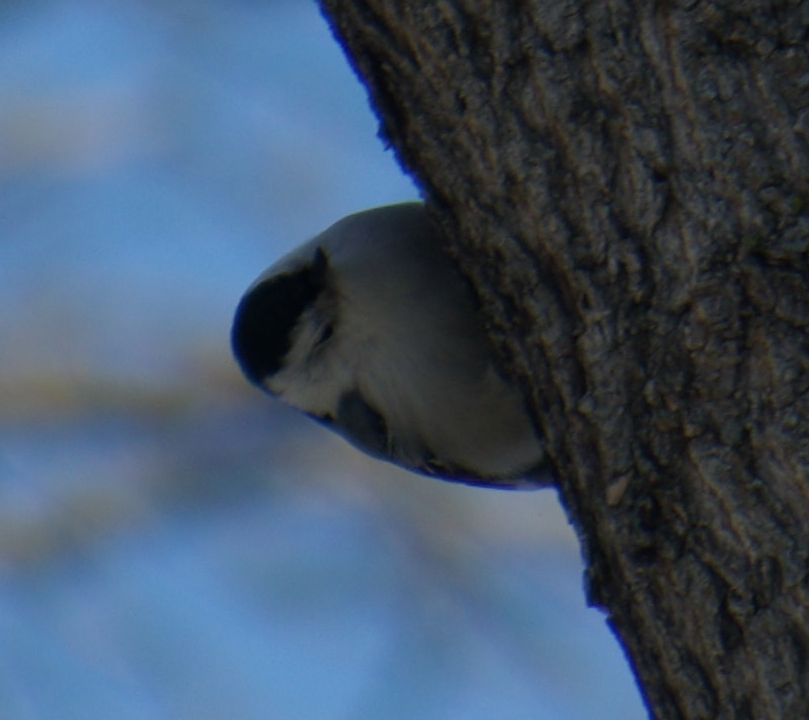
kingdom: Animalia
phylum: Chordata
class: Aves
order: Passeriformes
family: Sittidae
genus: Sitta
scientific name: Sitta carolinensis
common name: White-breasted nuthatch
